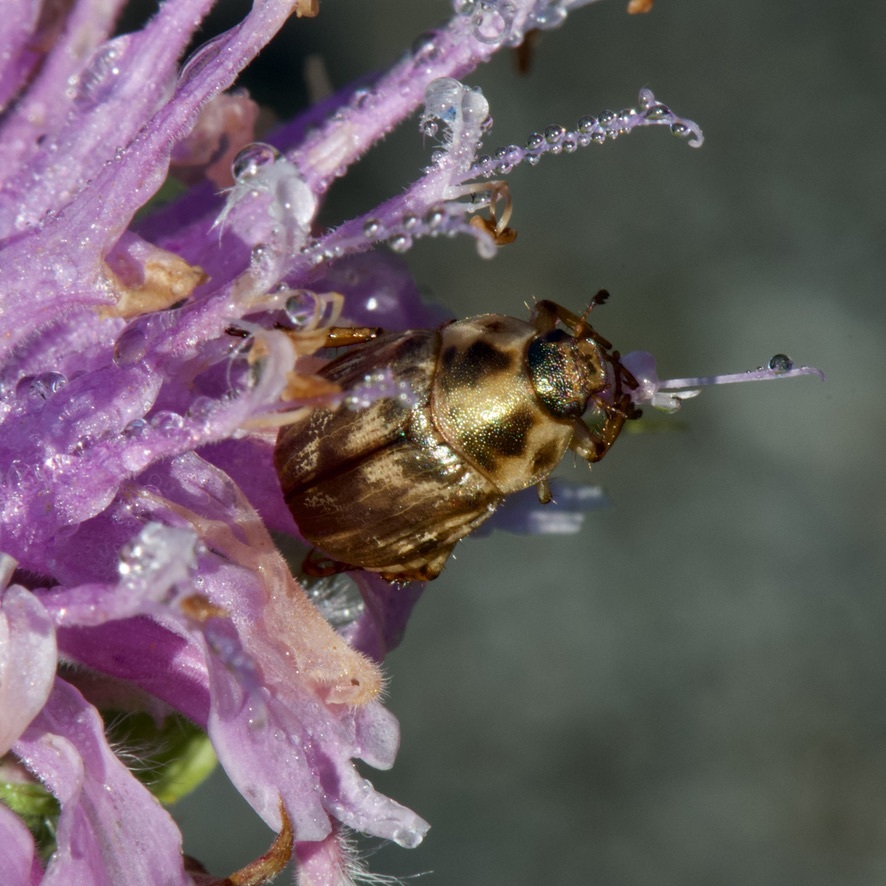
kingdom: Animalia
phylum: Arthropoda
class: Insecta
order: Coleoptera
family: Scarabaeidae
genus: Exomala
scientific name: Exomala orientalis
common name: Oriental beetle
